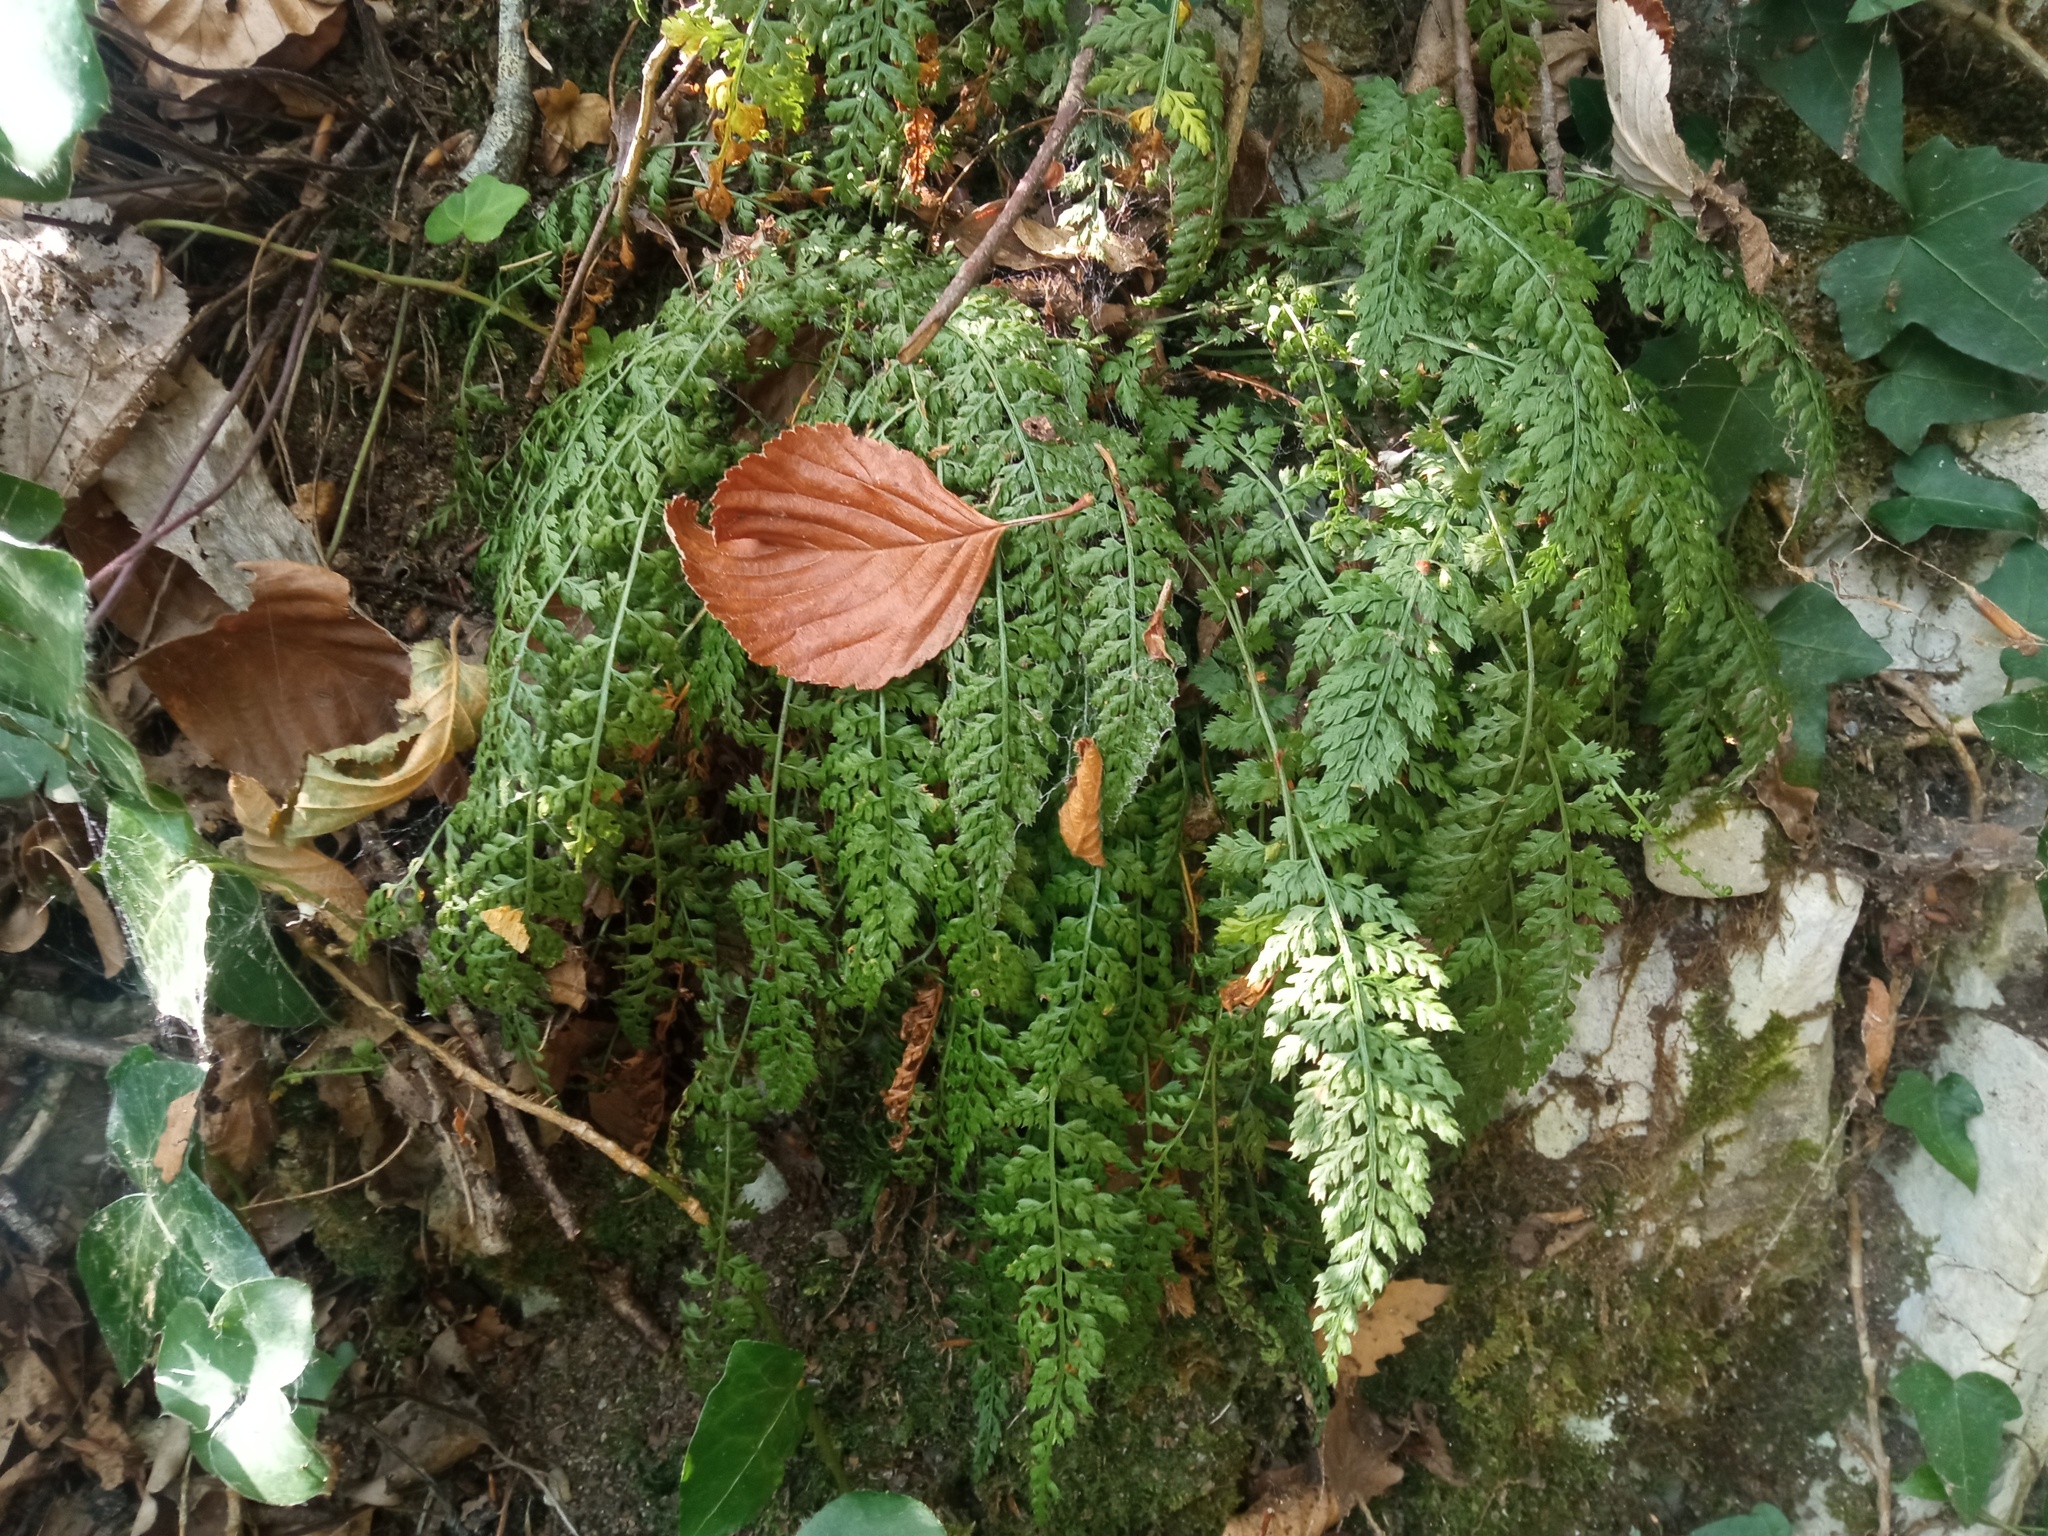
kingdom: Plantae
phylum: Tracheophyta
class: Polypodiopsida
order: Polypodiales
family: Aspleniaceae
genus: Asplenium
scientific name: Asplenium fontanum
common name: Fountain spleenwort
